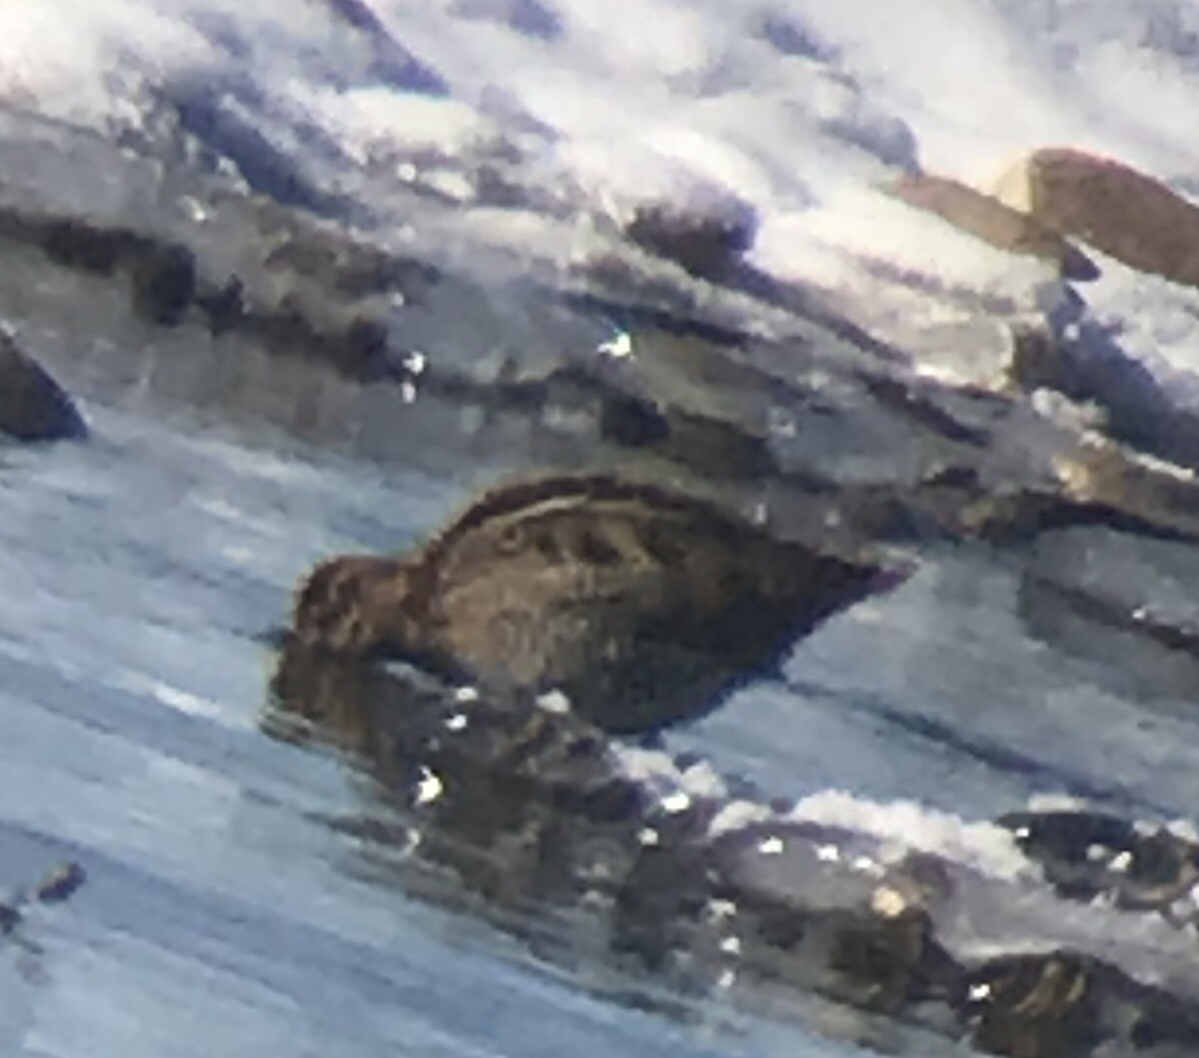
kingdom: Animalia
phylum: Chordata
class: Aves
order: Charadriiformes
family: Scolopacidae
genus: Gallinago
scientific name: Gallinago delicata
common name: Wilson's snipe
